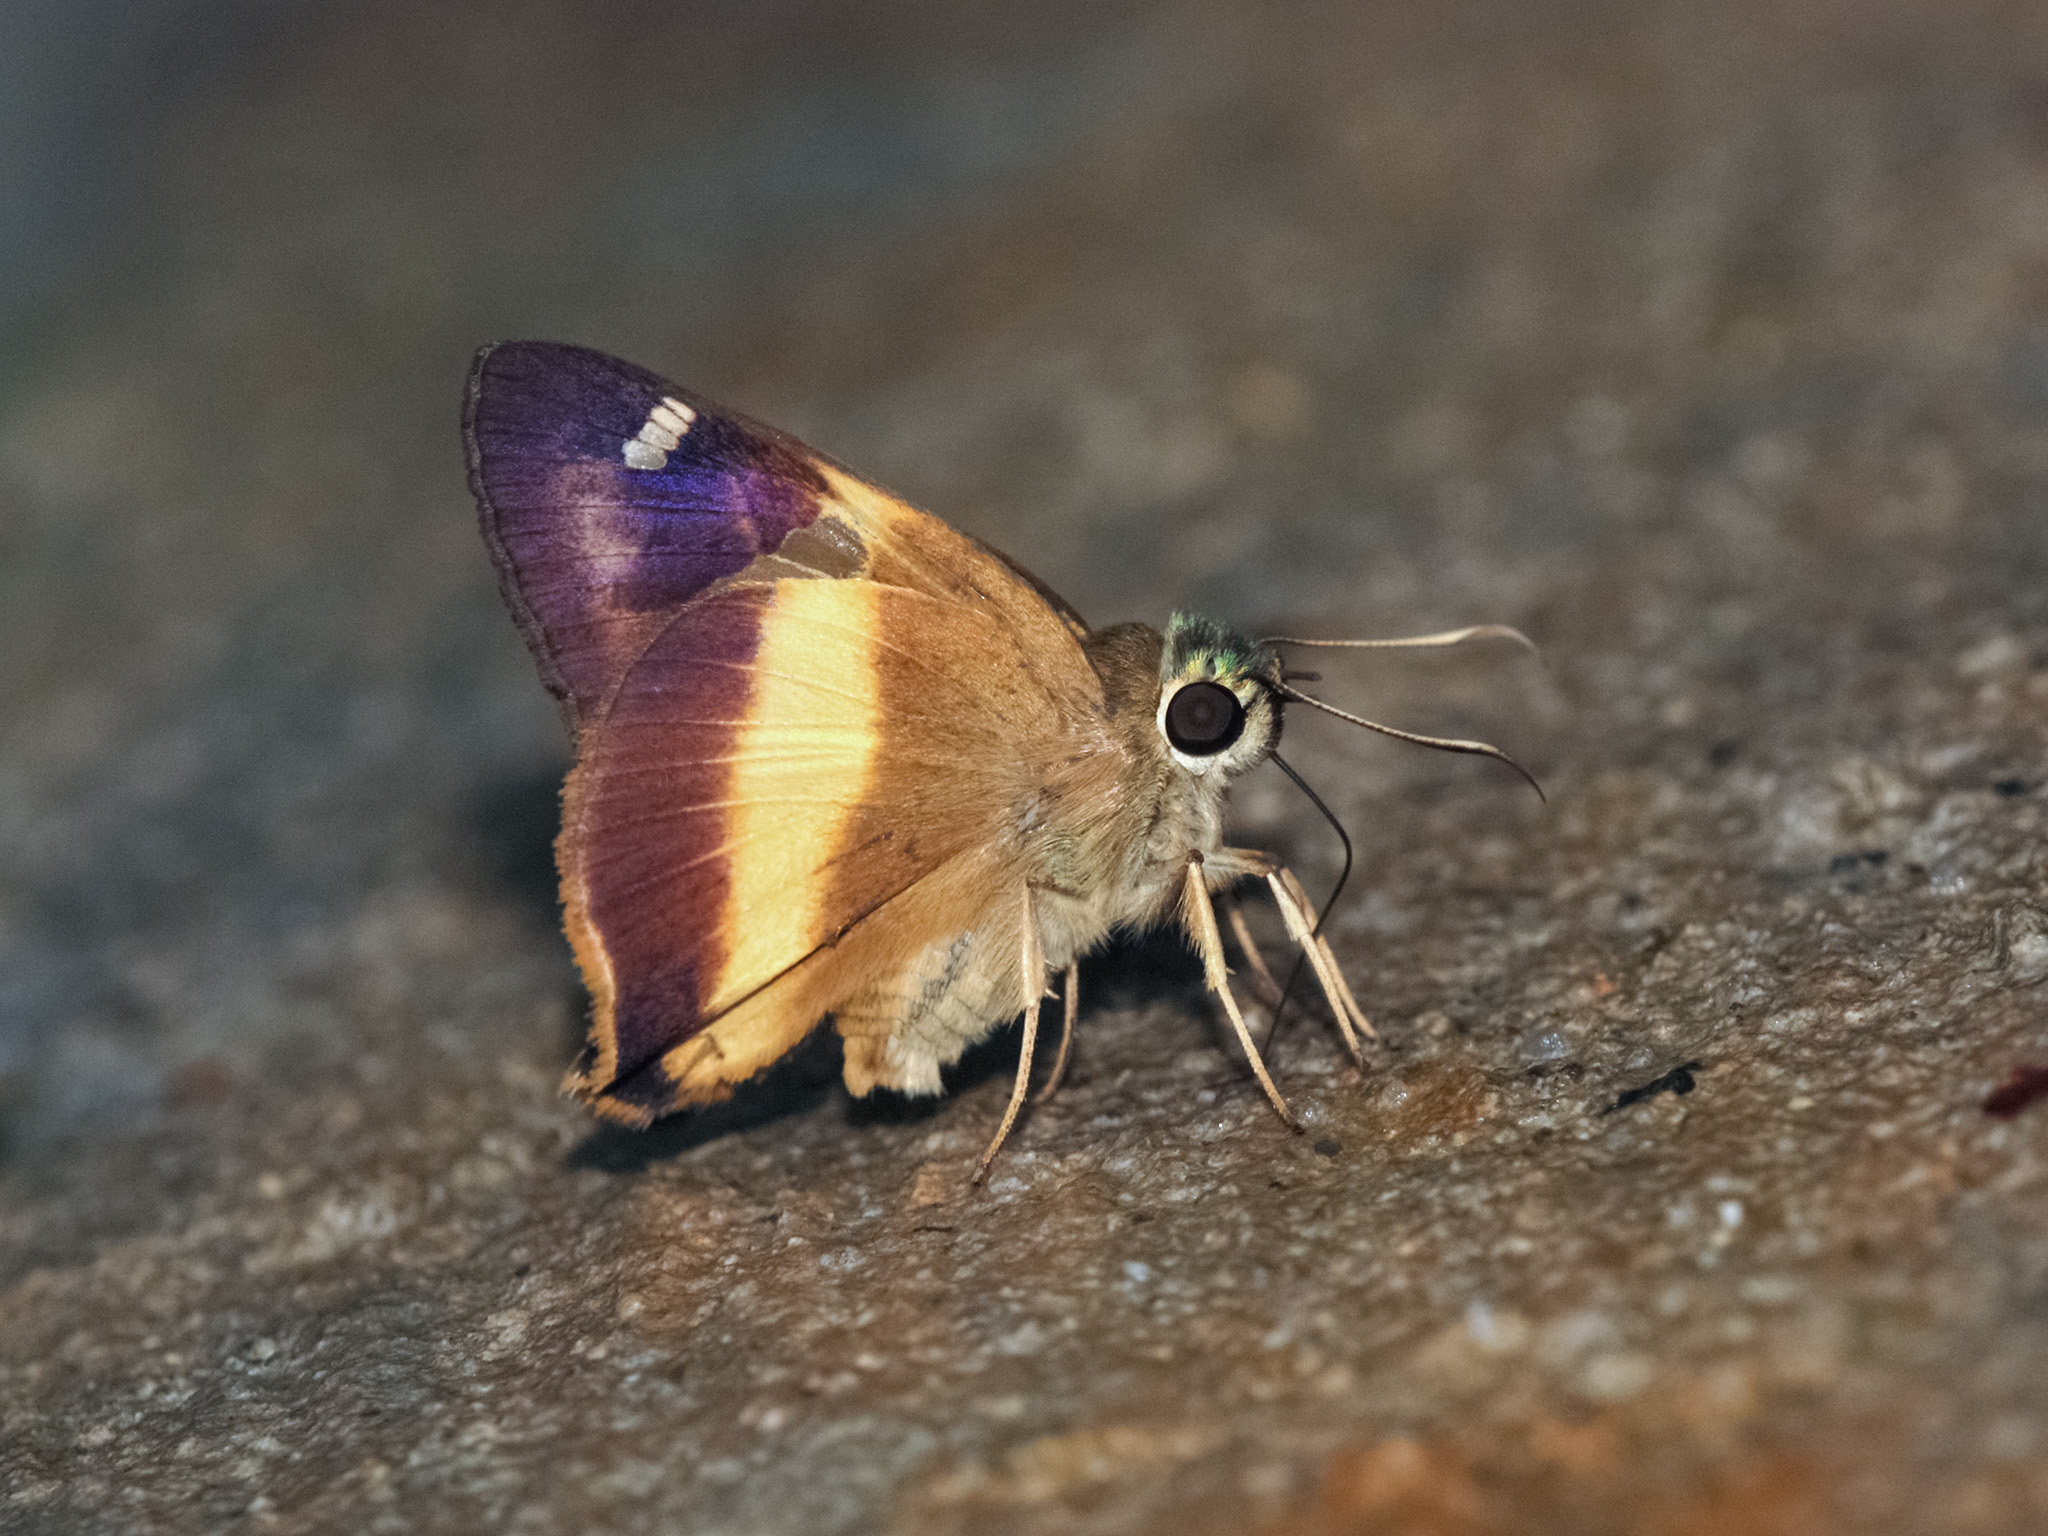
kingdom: Animalia
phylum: Arthropoda
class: Insecta
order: Lepidoptera
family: Hesperiidae
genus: Hasora
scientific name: Hasora schoenherr
